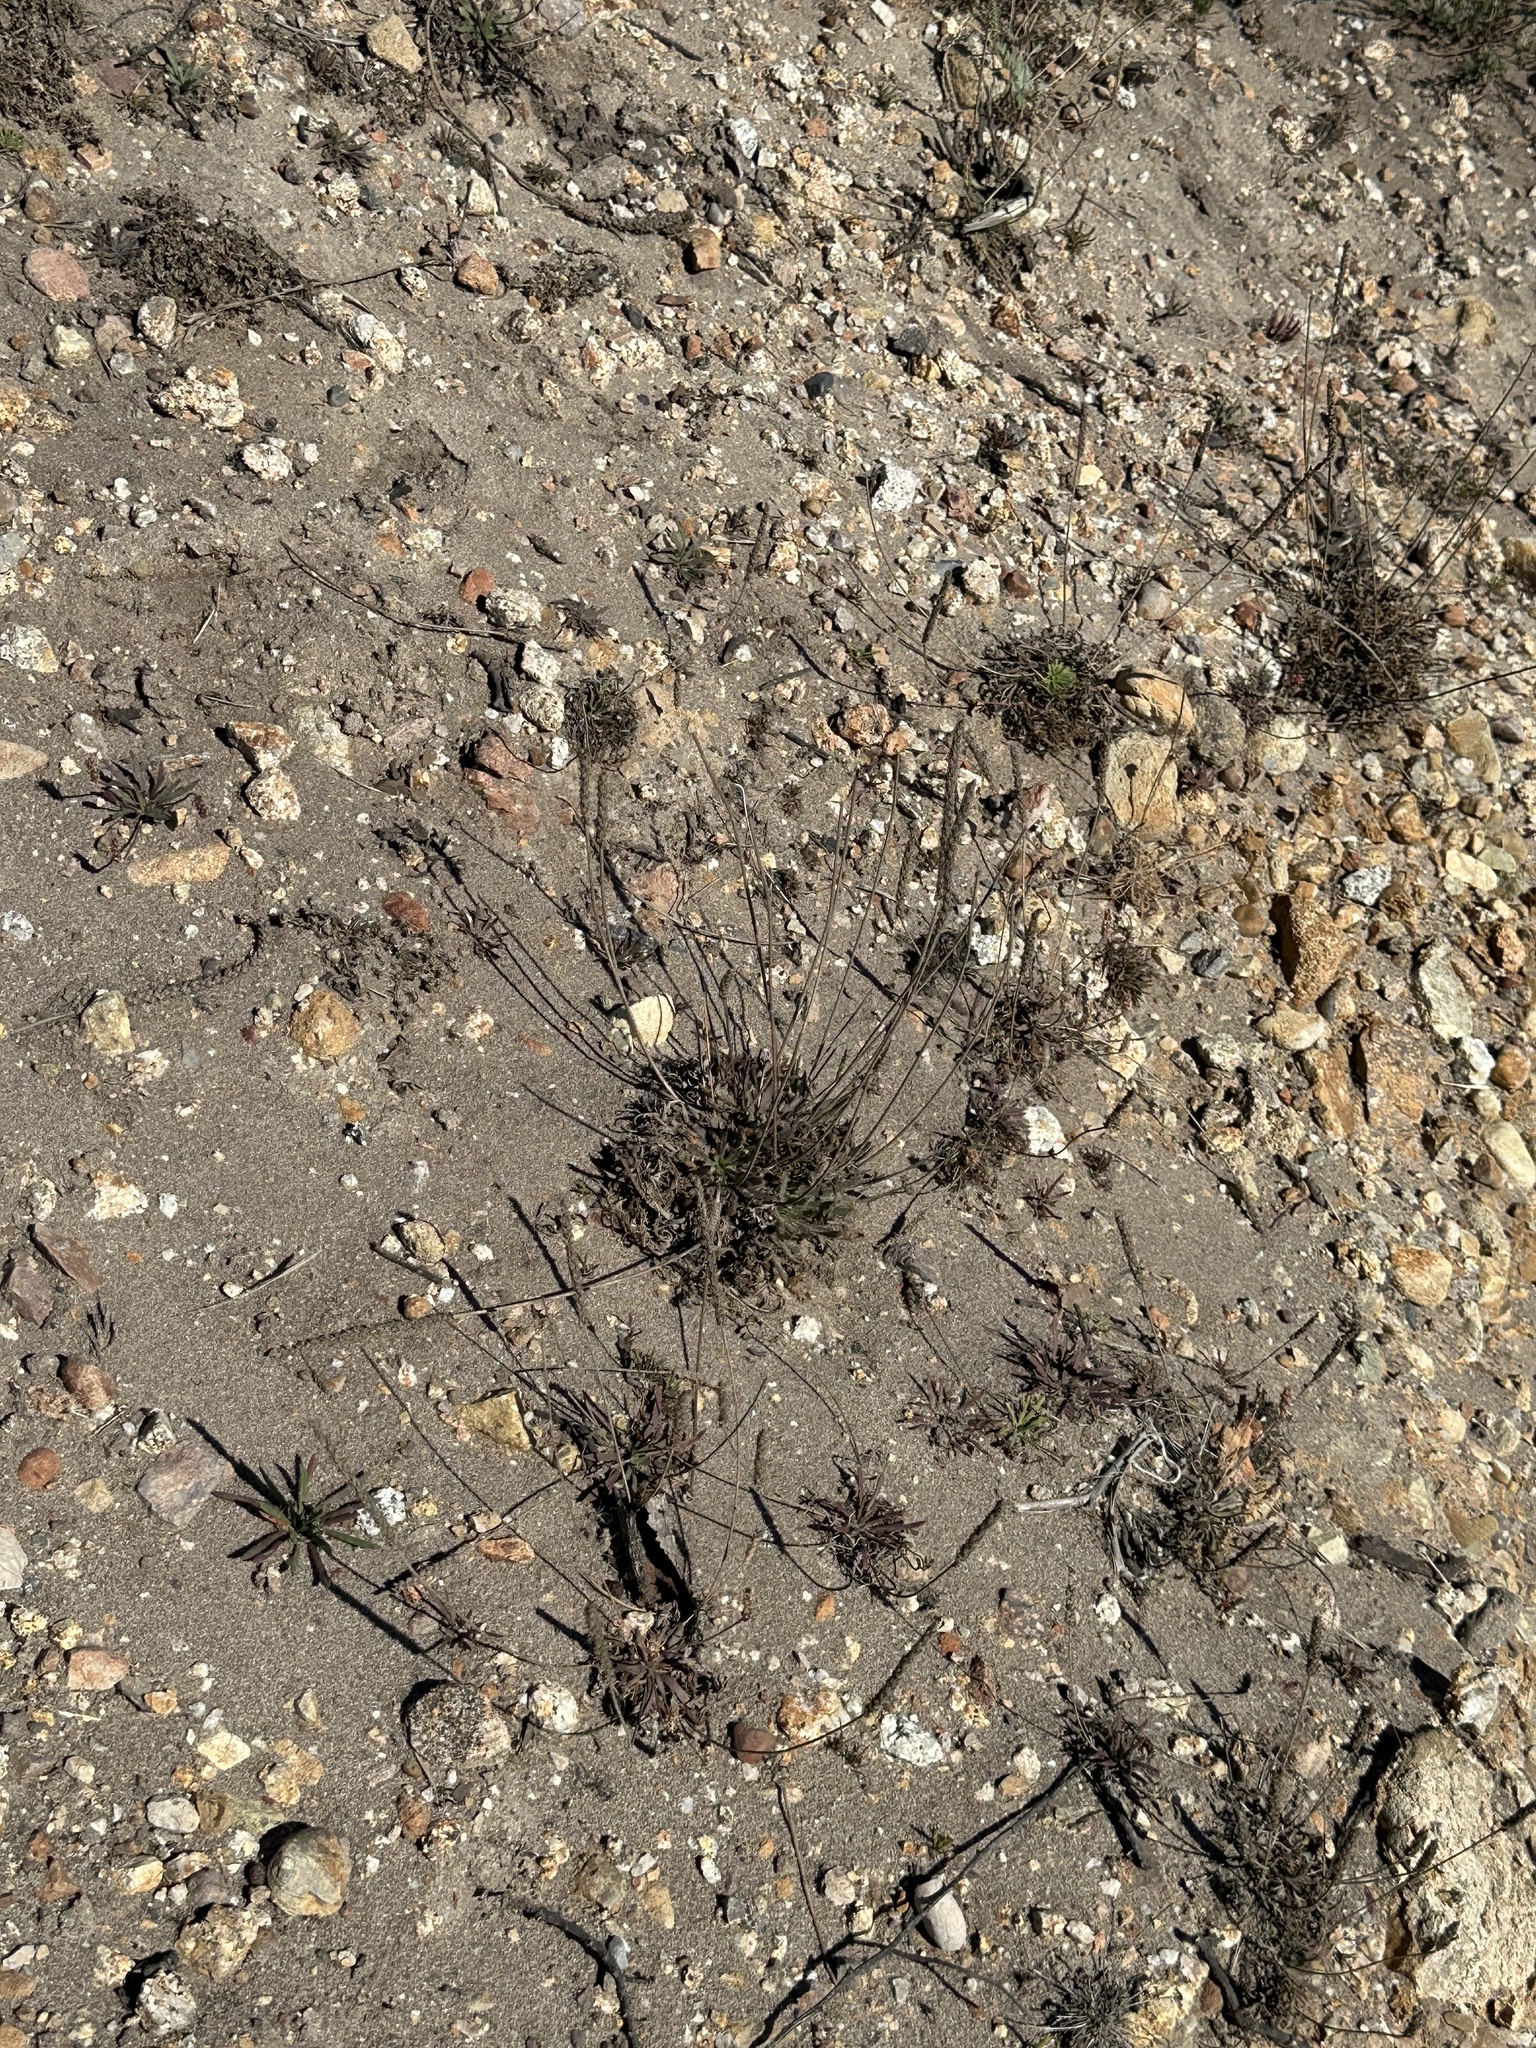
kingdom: Plantae
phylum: Tracheophyta
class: Magnoliopsida
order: Lamiales
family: Plantaginaceae
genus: Plantago
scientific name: Plantago coronopus
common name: Buck's-horn plantain
